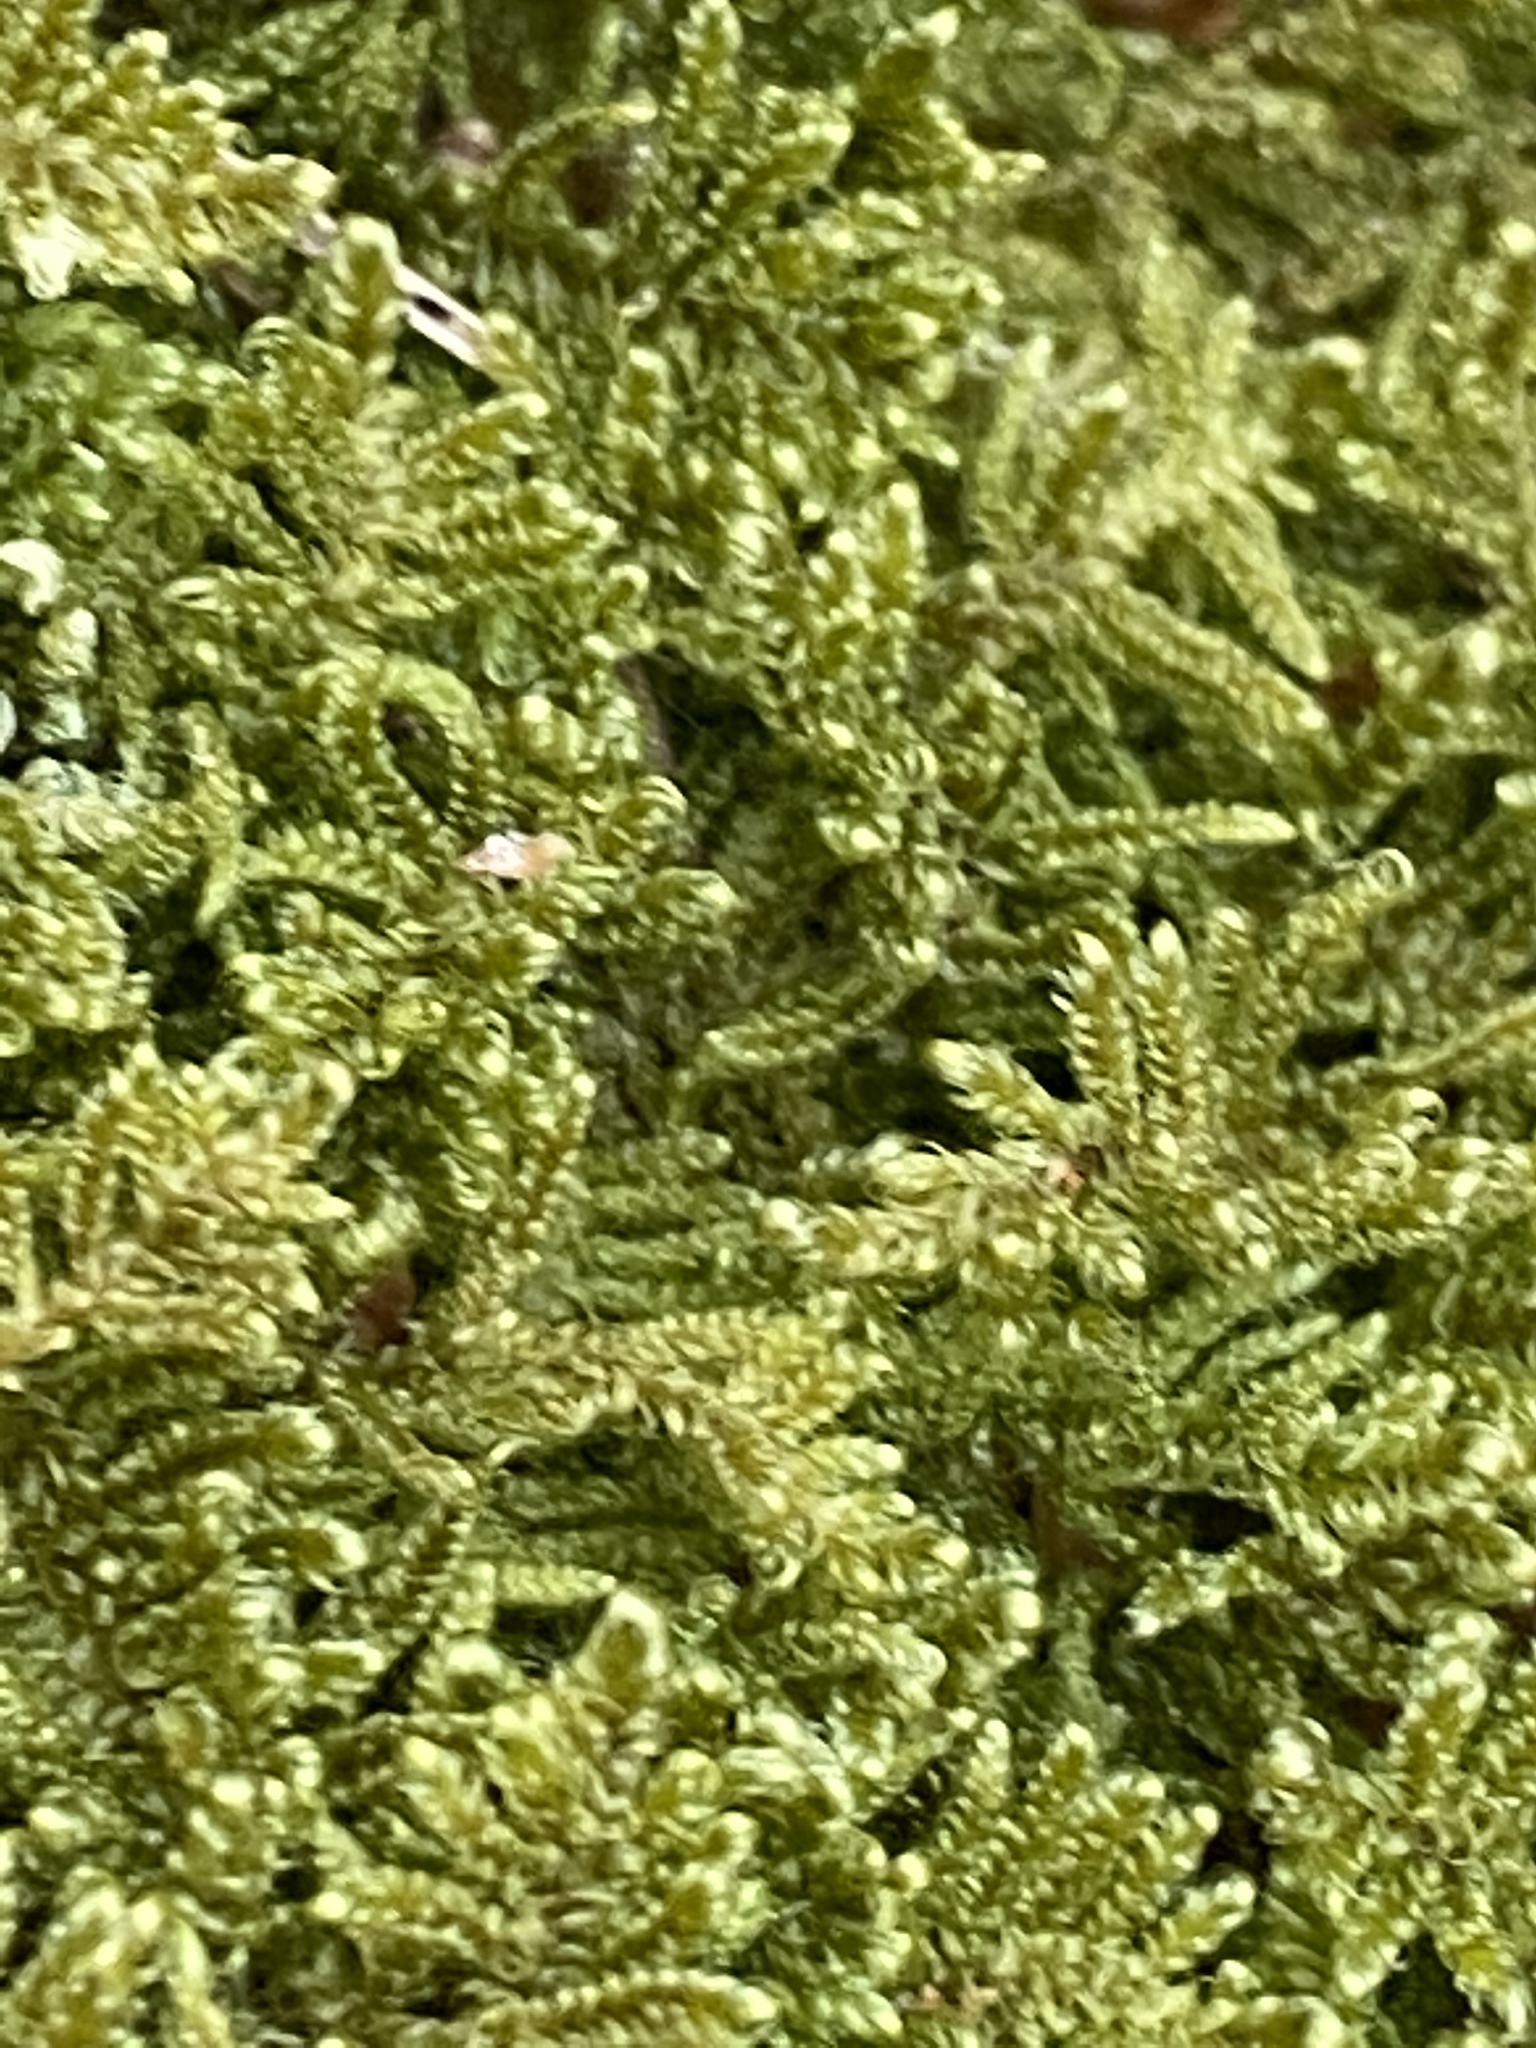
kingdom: Plantae
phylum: Bryophyta
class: Bryopsida
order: Hypnales
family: Callicladiaceae
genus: Callicladium
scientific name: Callicladium imponens
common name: Brocade moss
